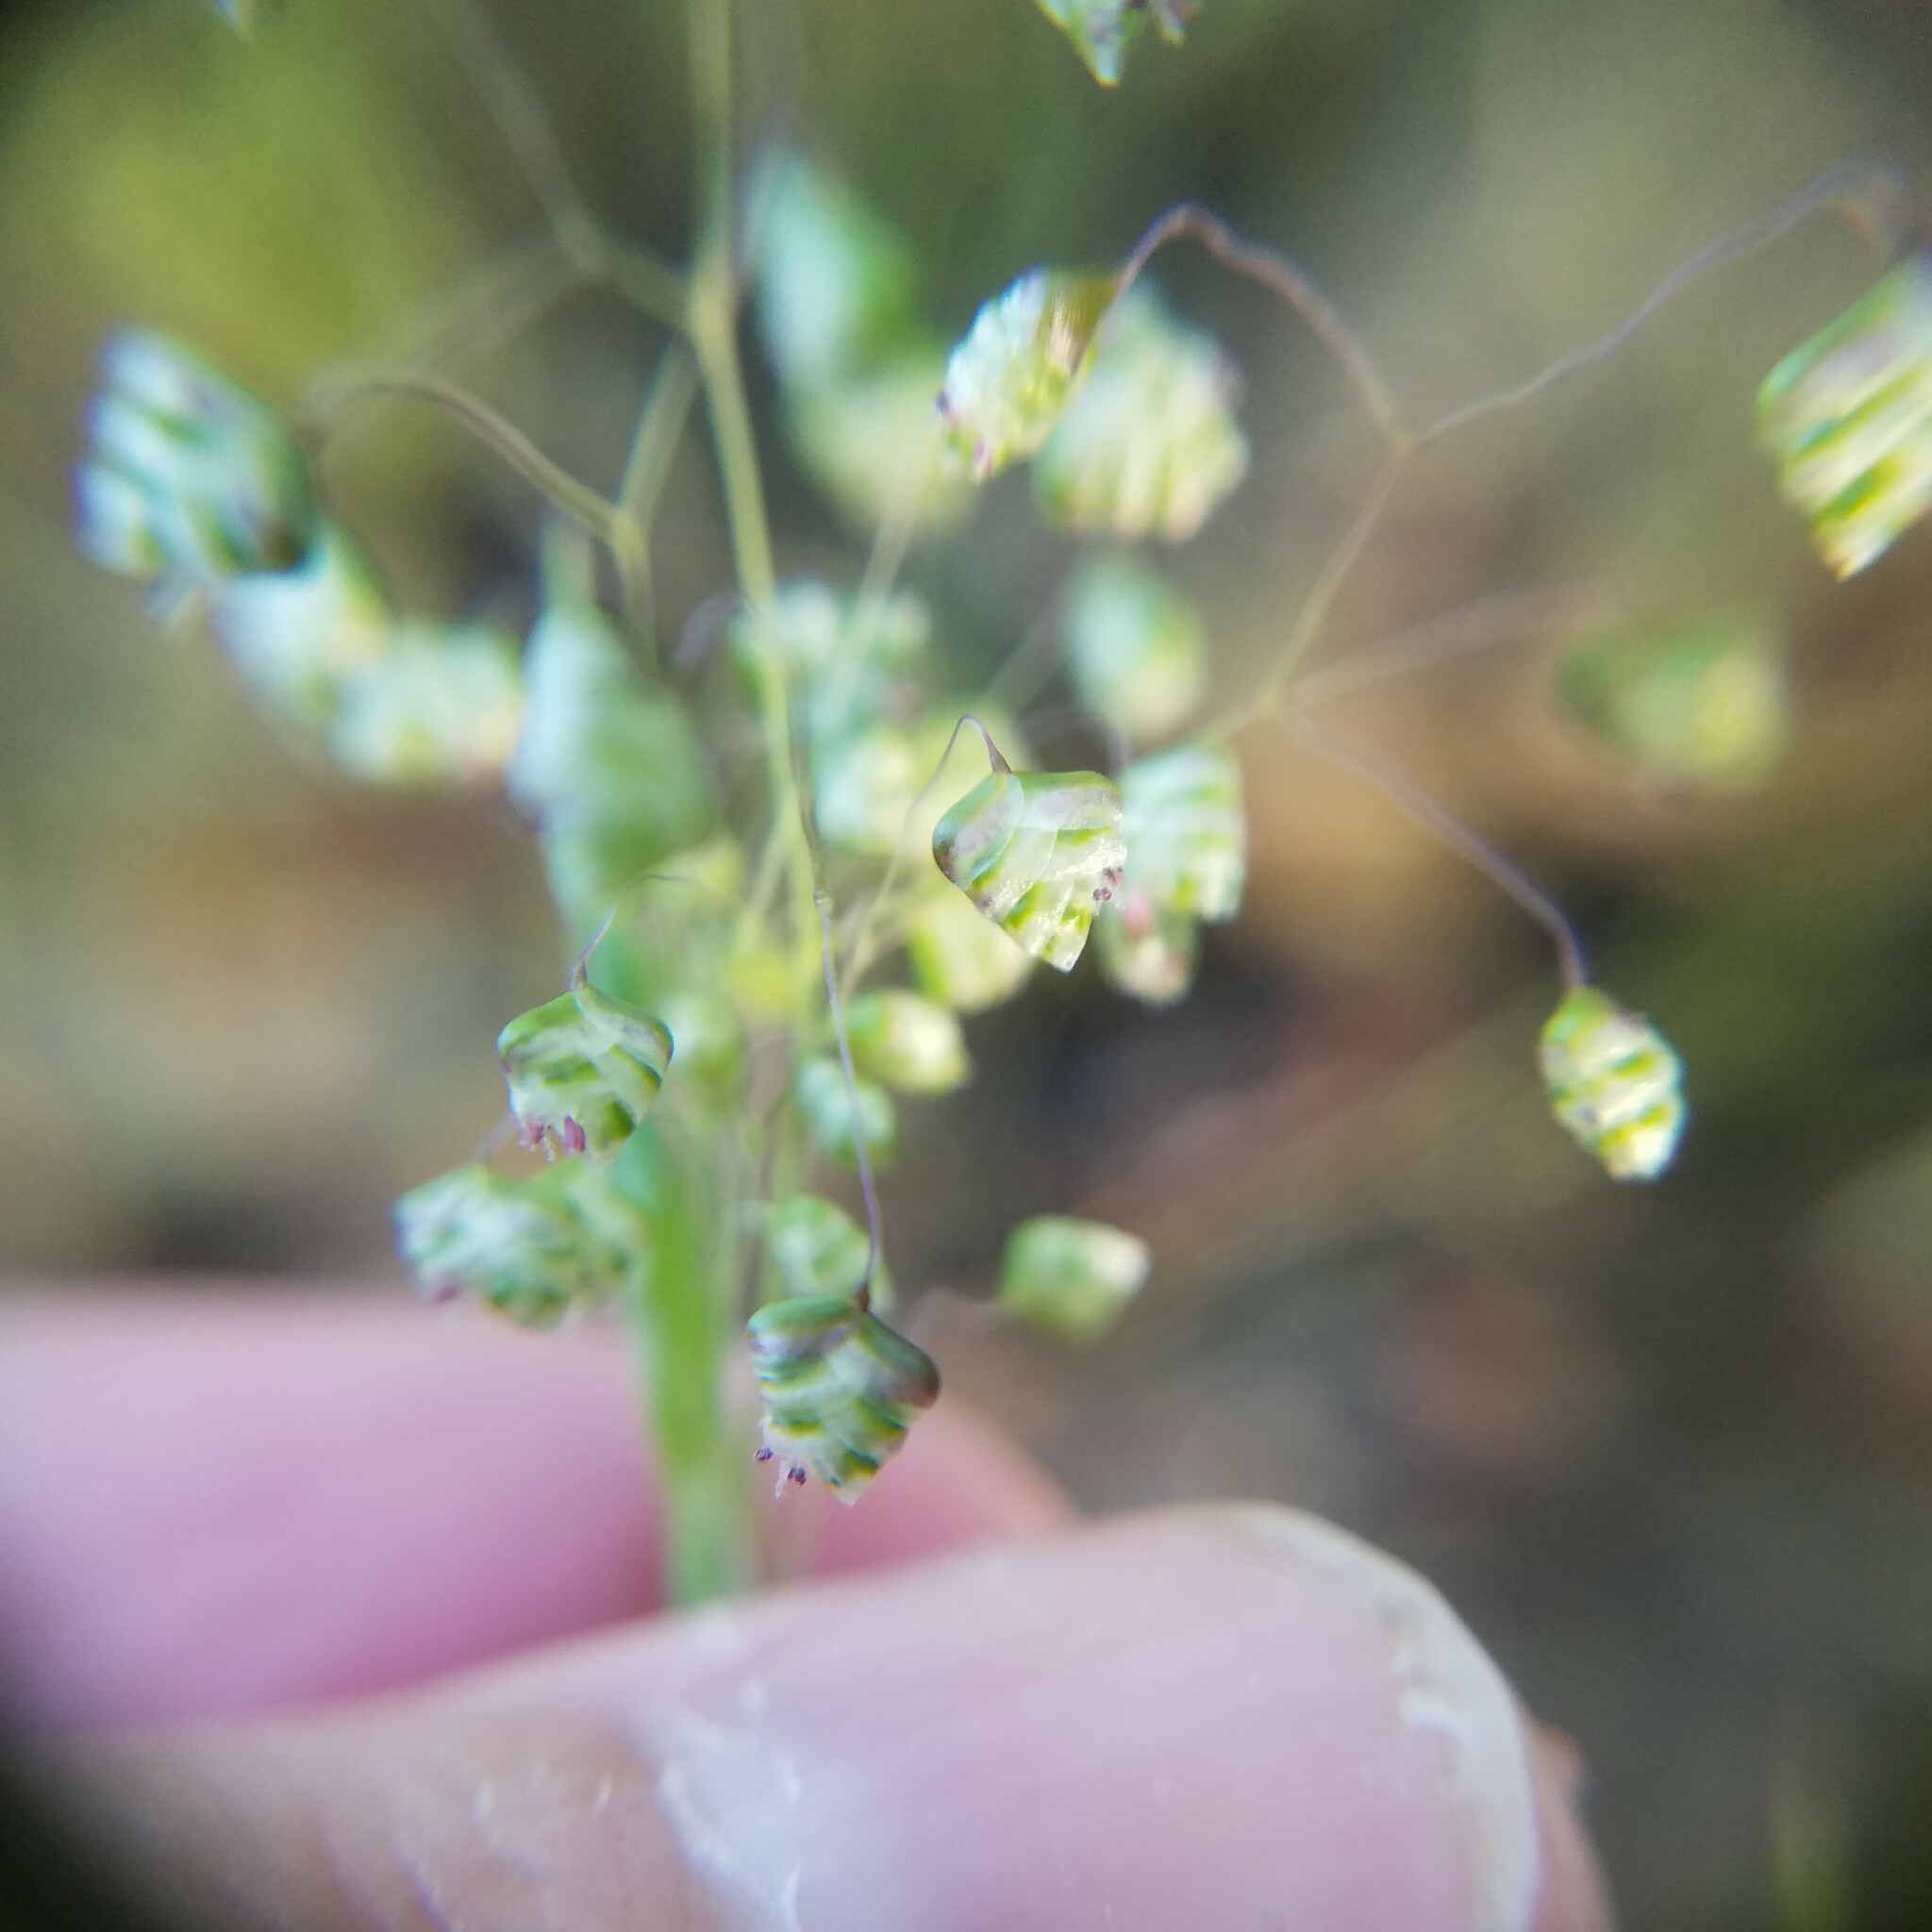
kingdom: Plantae
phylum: Tracheophyta
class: Liliopsida
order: Poales
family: Poaceae
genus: Briza
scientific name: Briza minor
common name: Lesser quaking-grass
